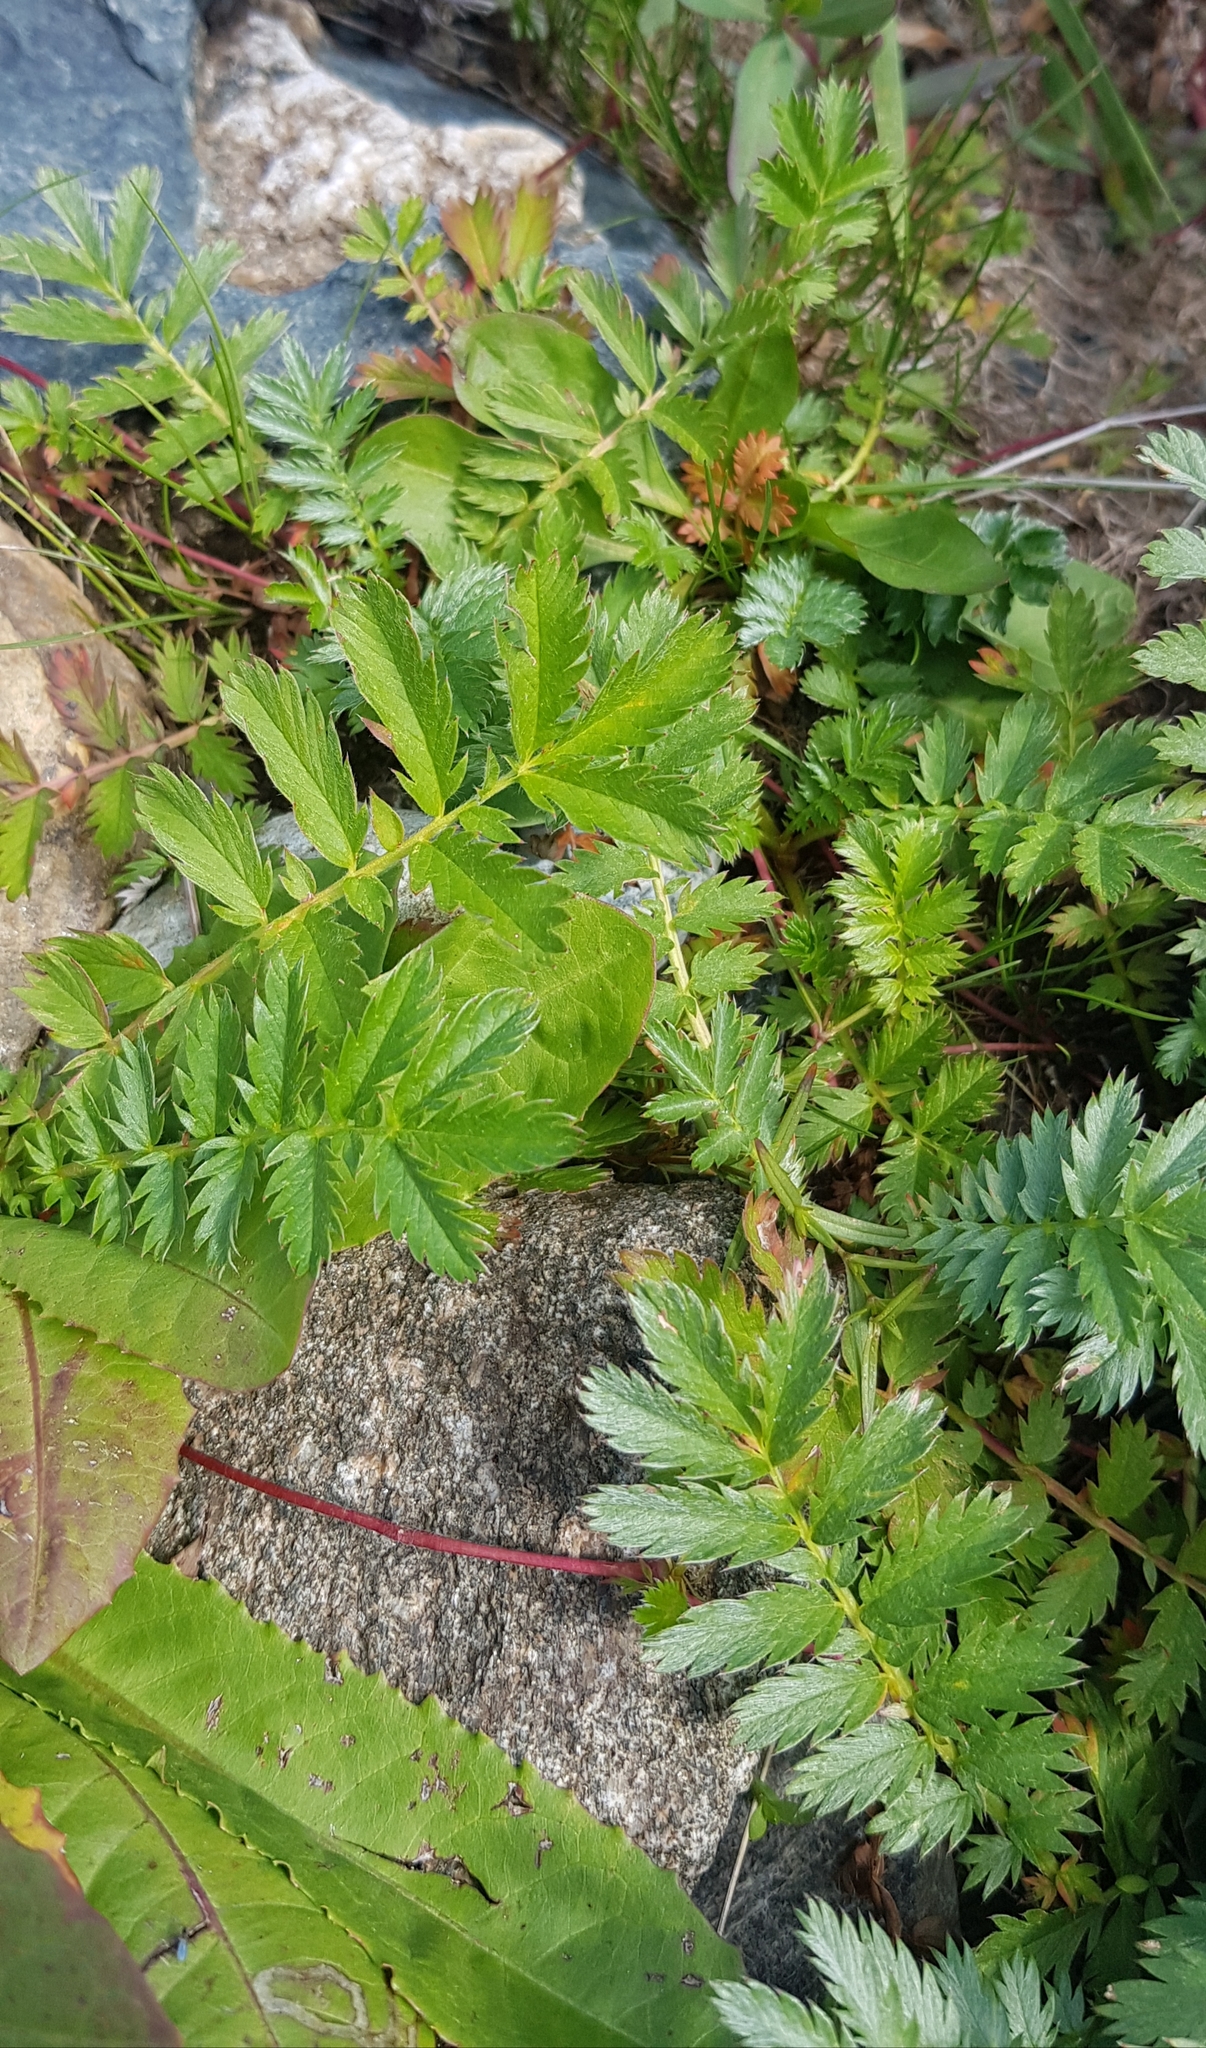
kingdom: Plantae
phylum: Tracheophyta
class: Magnoliopsida
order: Rosales
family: Rosaceae
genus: Argentina
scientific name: Argentina anserina
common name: Common silverweed
